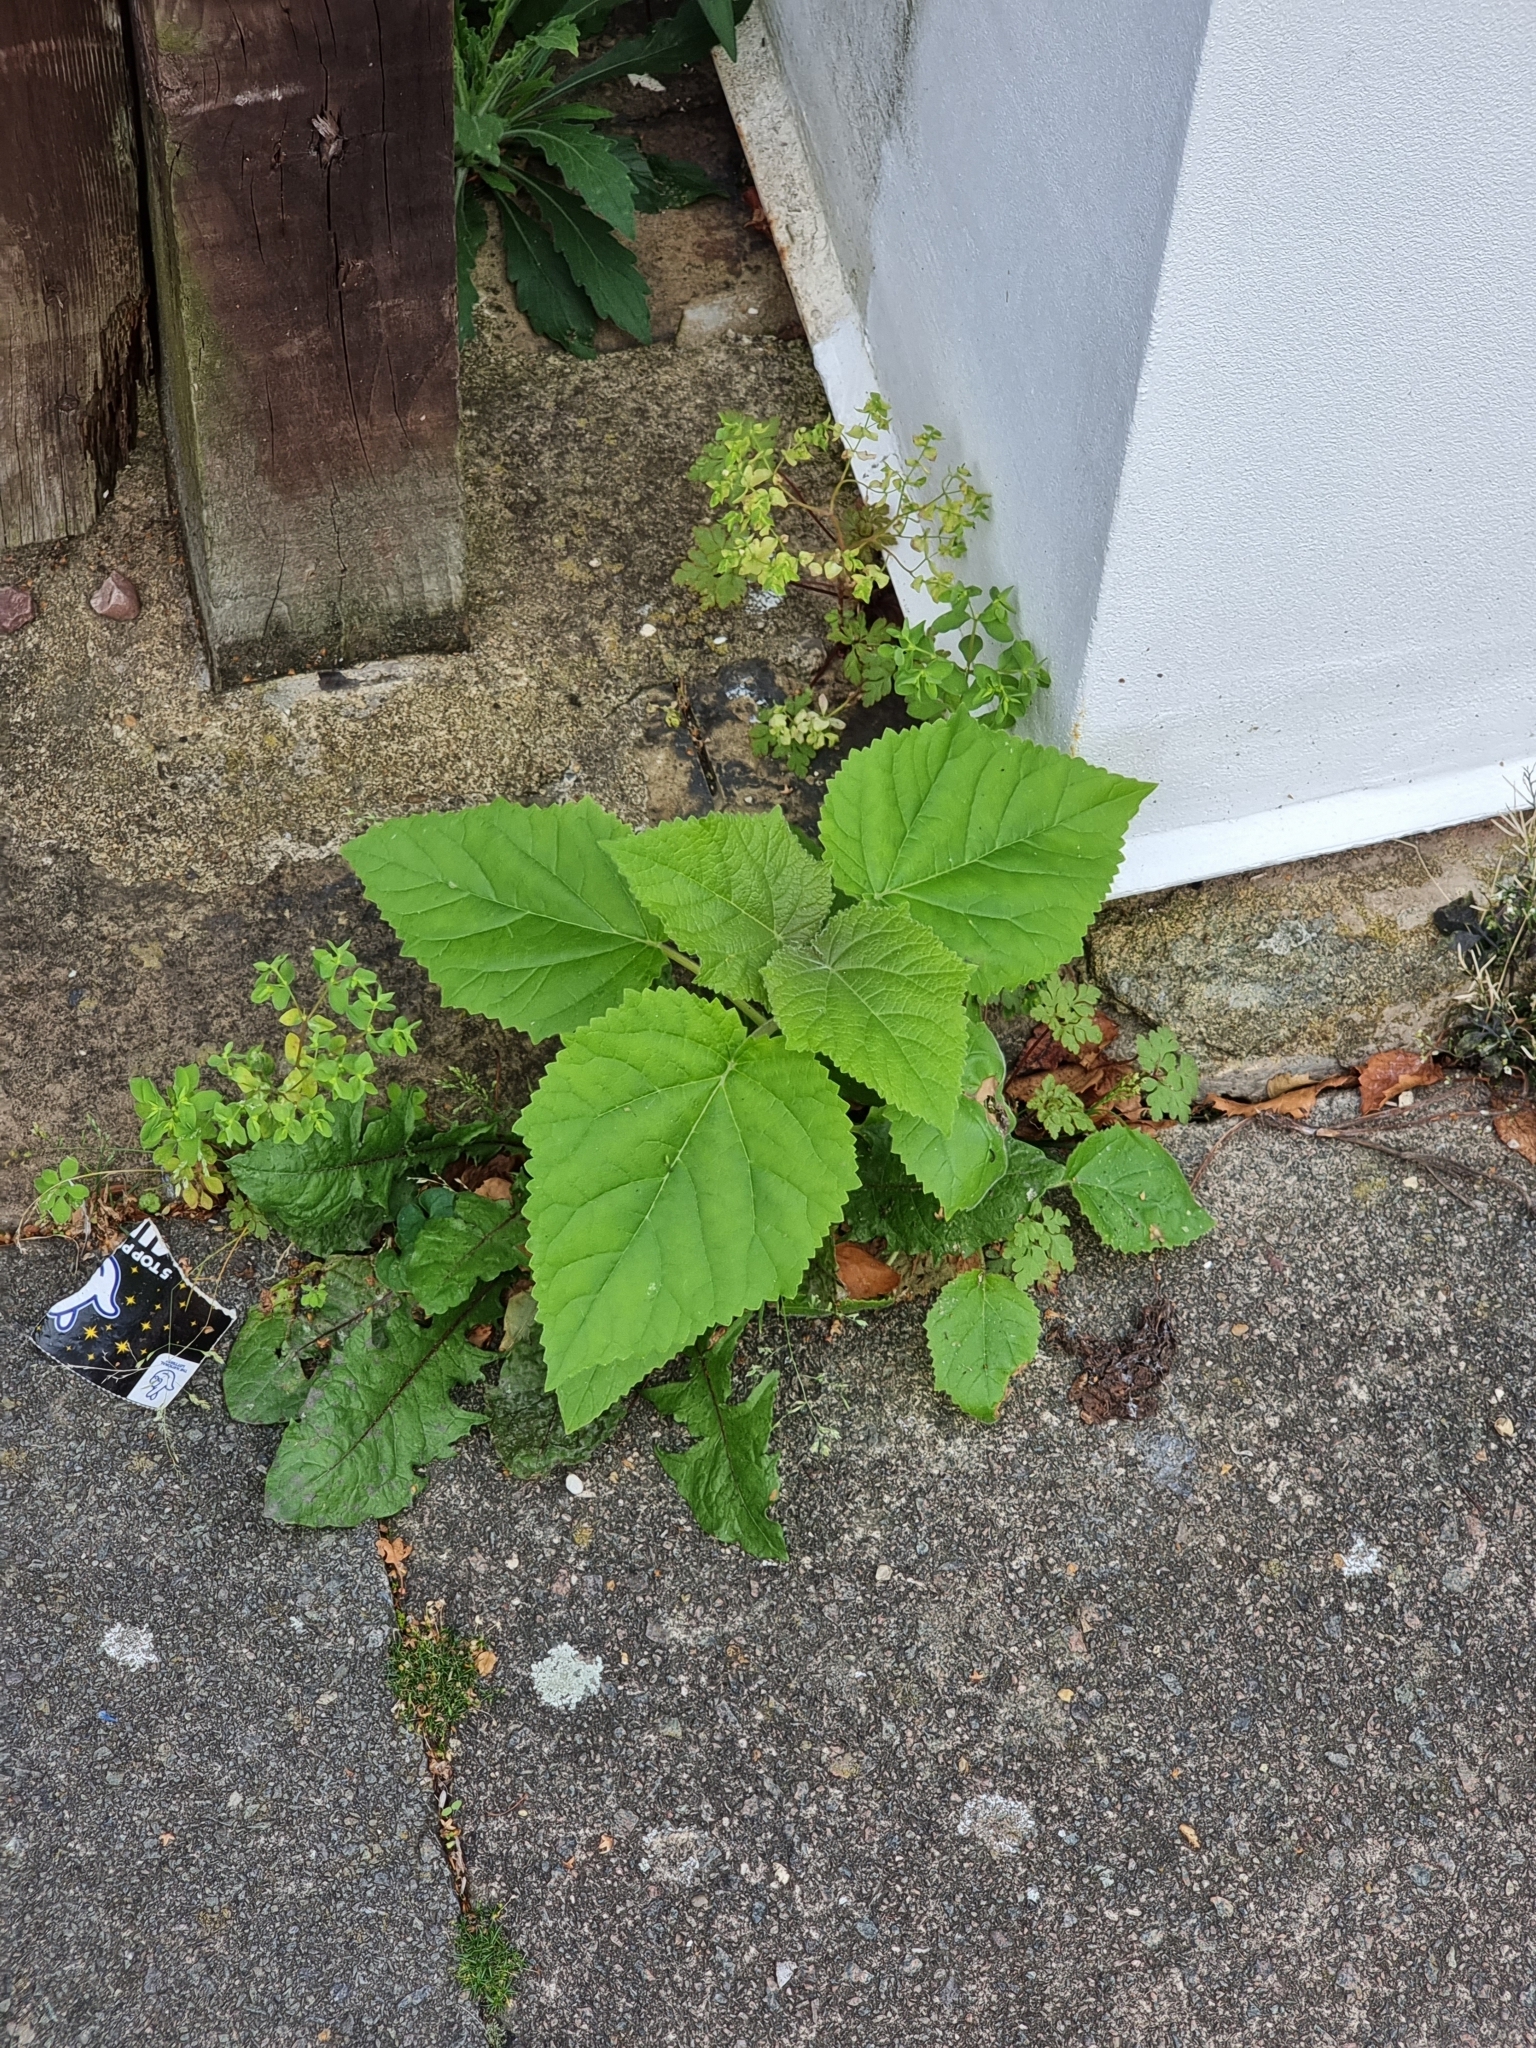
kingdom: Plantae
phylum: Tracheophyta
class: Magnoliopsida
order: Lamiales
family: Paulowniaceae
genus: Paulownia
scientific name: Paulownia tomentosa
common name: Foxglove-tree
